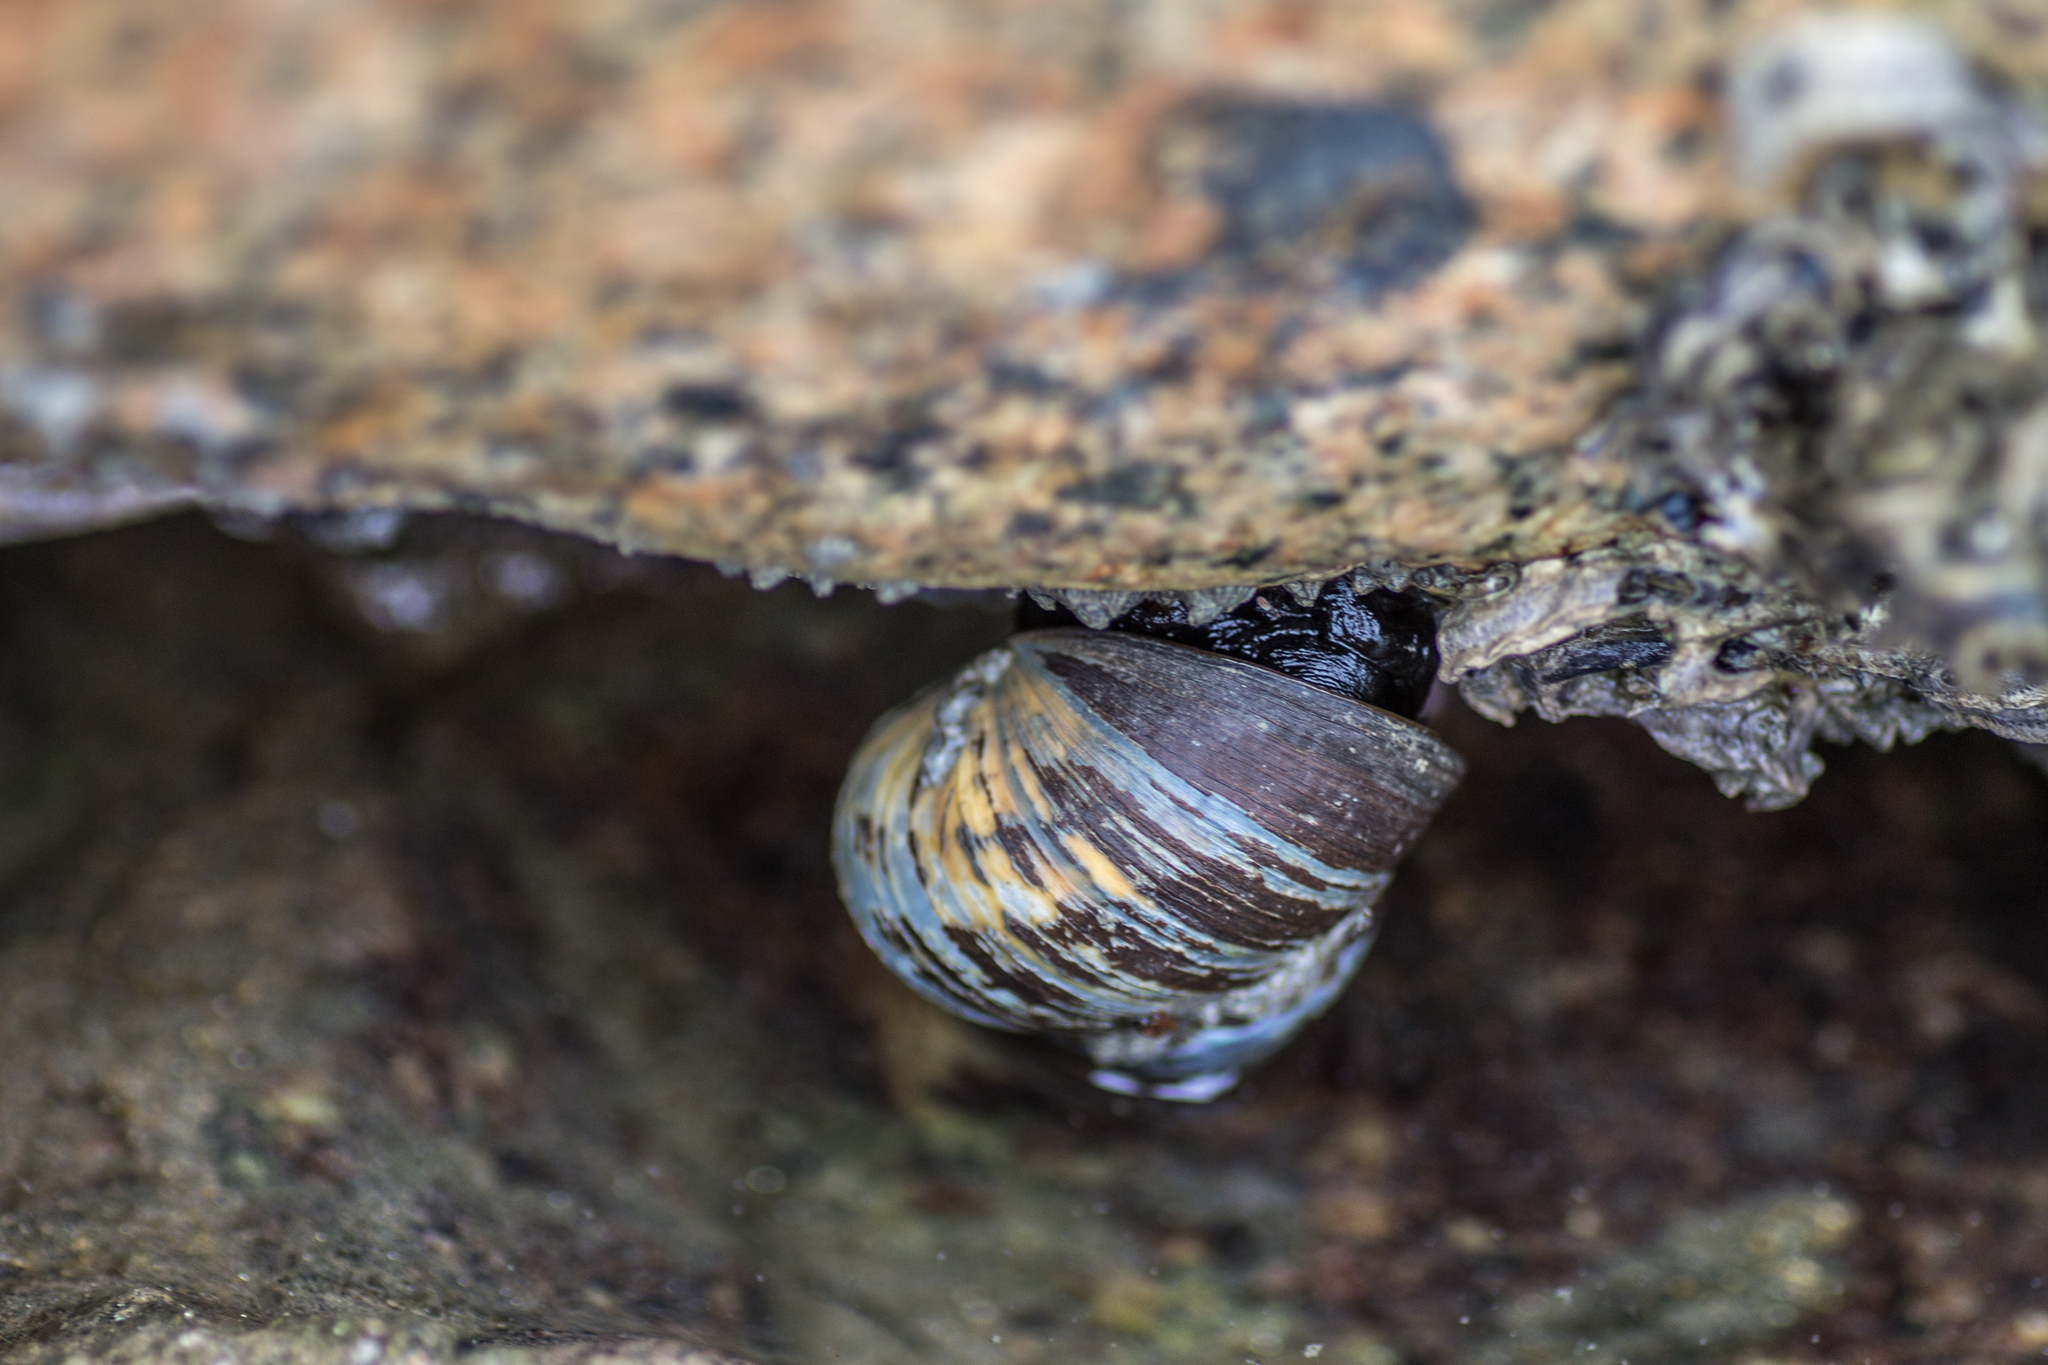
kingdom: Animalia
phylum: Mollusca
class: Gastropoda
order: Trochida
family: Turbinidae
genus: Lunella
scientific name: Lunella smaragda
